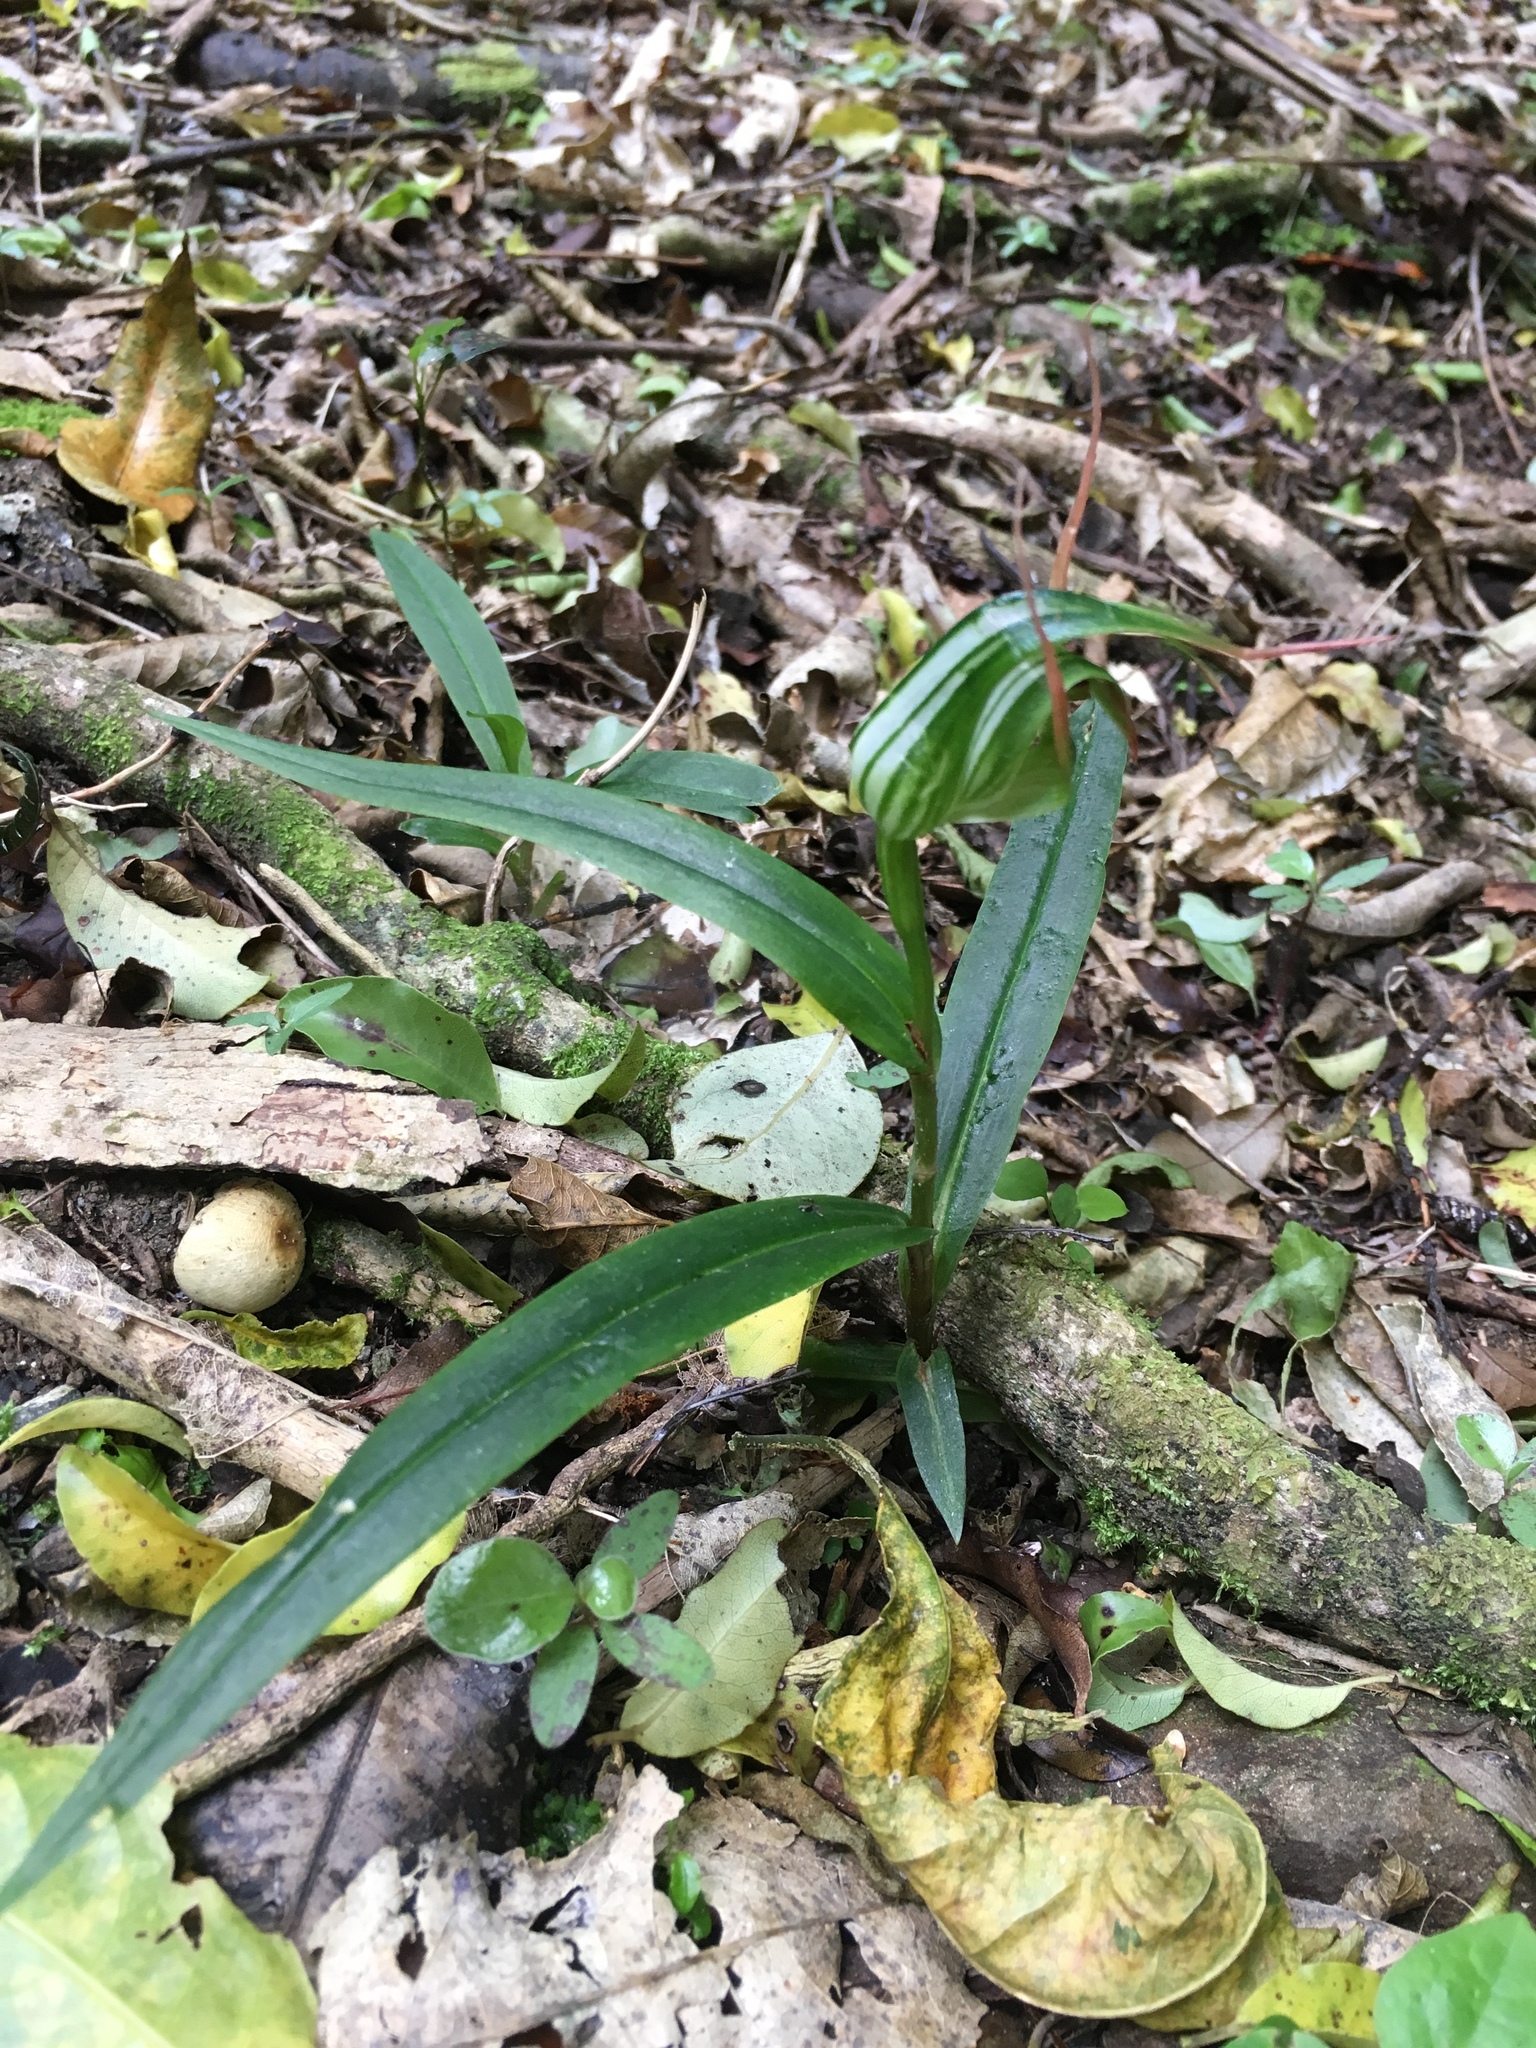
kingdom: Plantae
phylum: Tracheophyta
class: Liliopsida
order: Asparagales
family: Orchidaceae
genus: Pterostylis
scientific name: Pterostylis banksii
